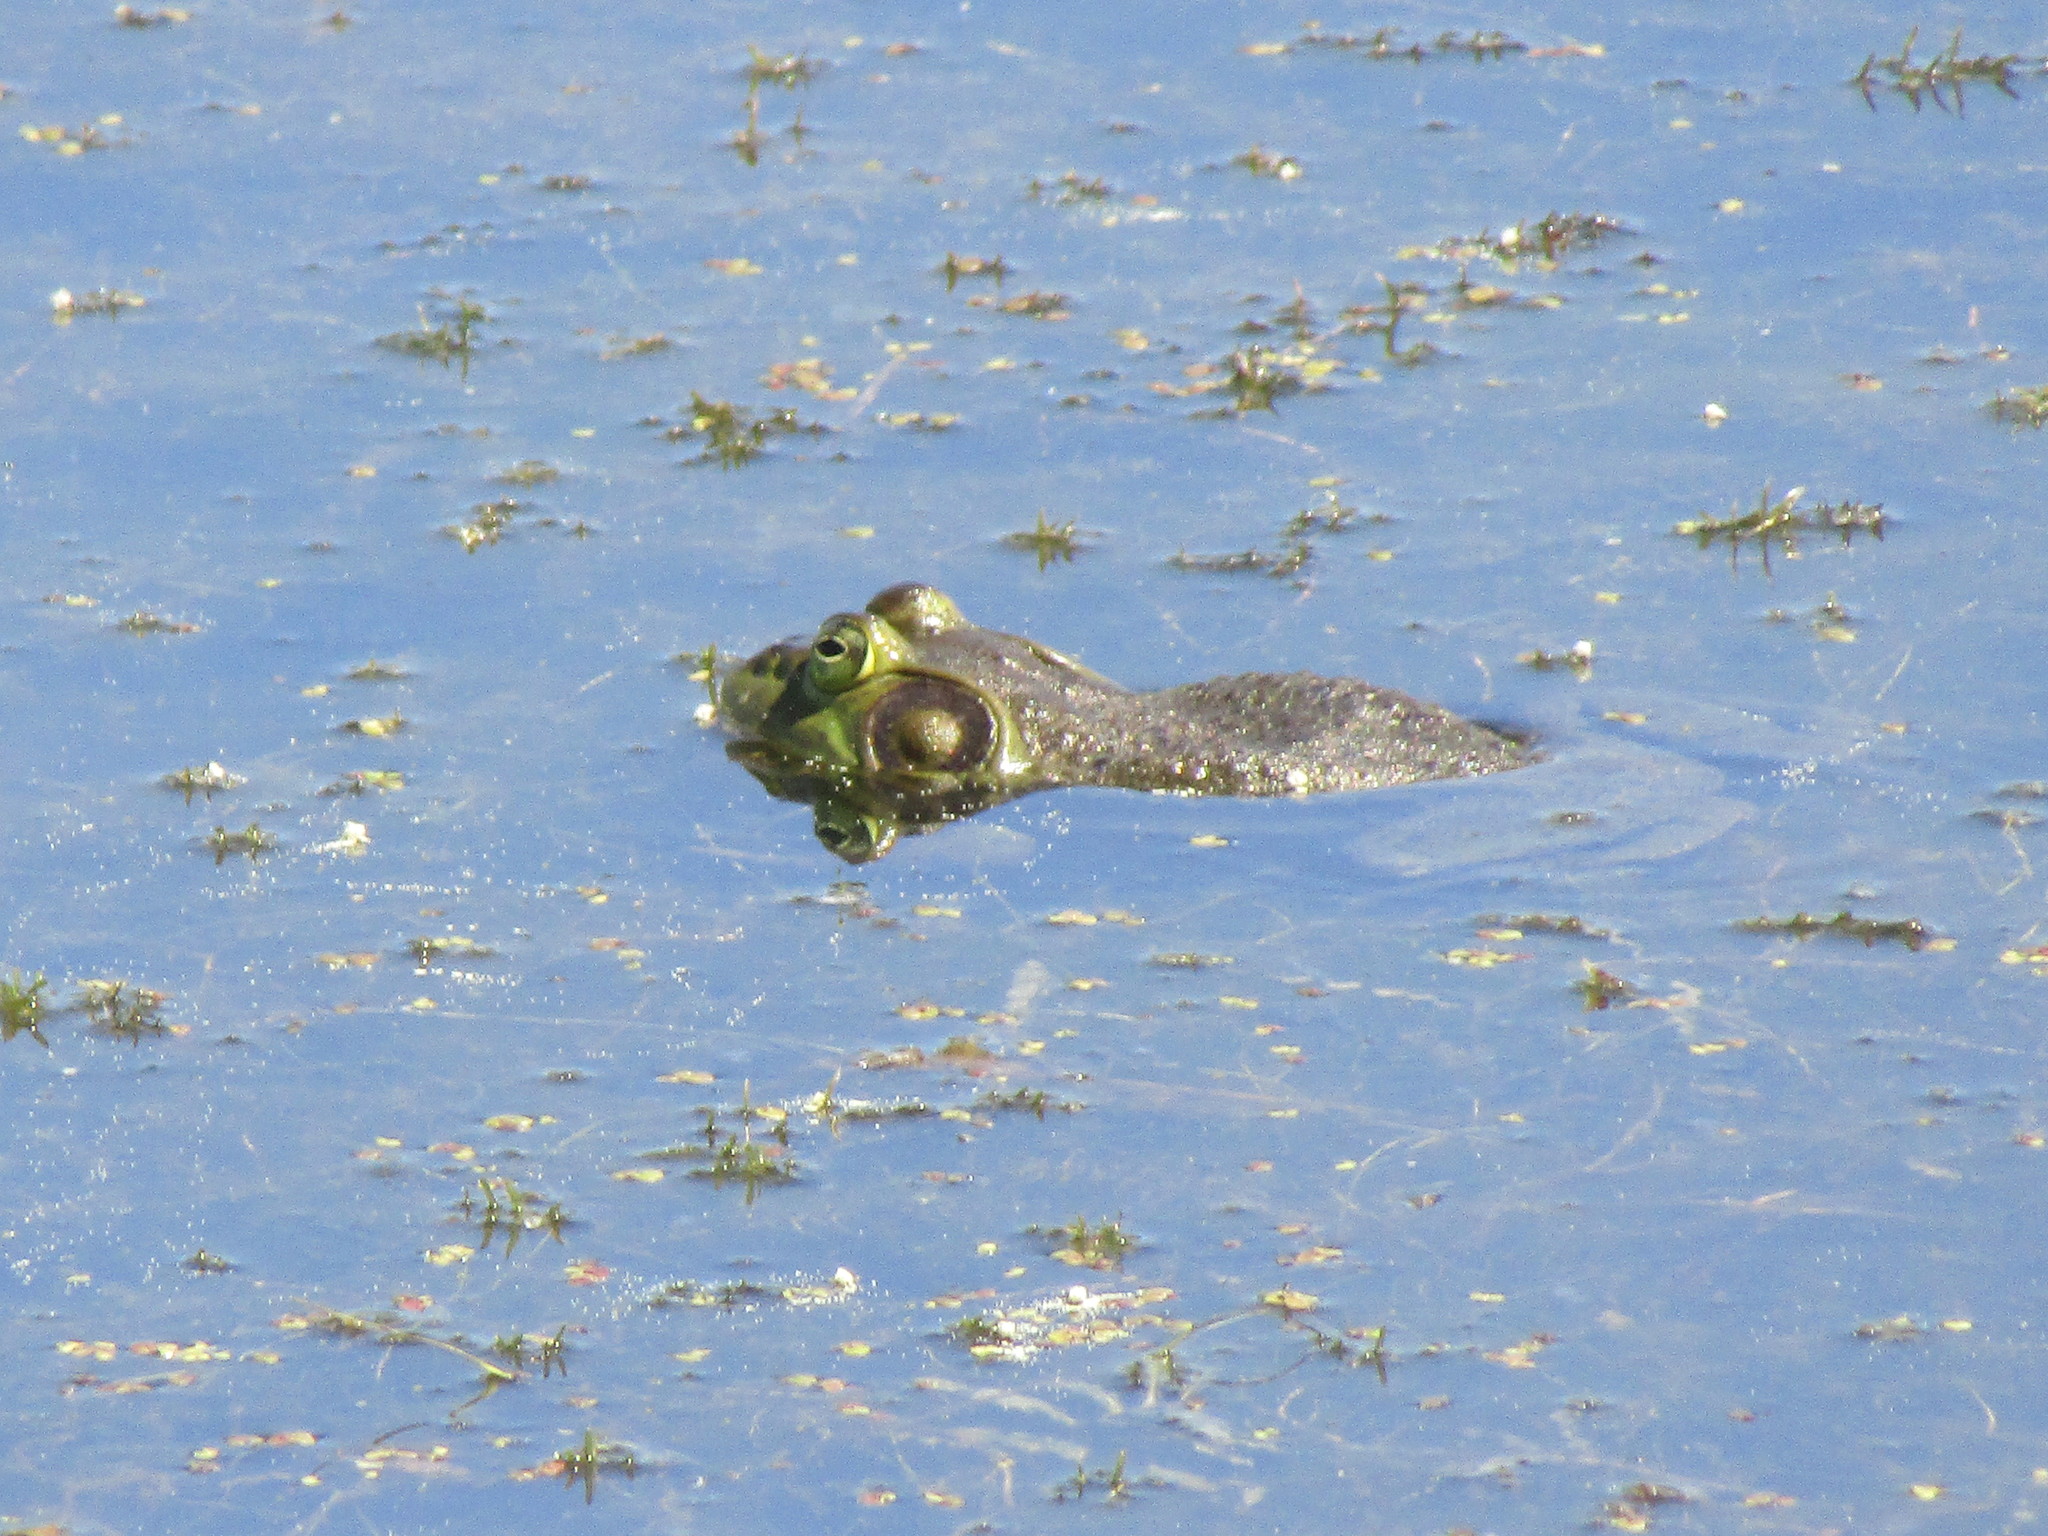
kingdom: Animalia
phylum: Chordata
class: Amphibia
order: Anura
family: Ranidae
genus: Lithobates
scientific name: Lithobates catesbeianus
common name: American bullfrog
